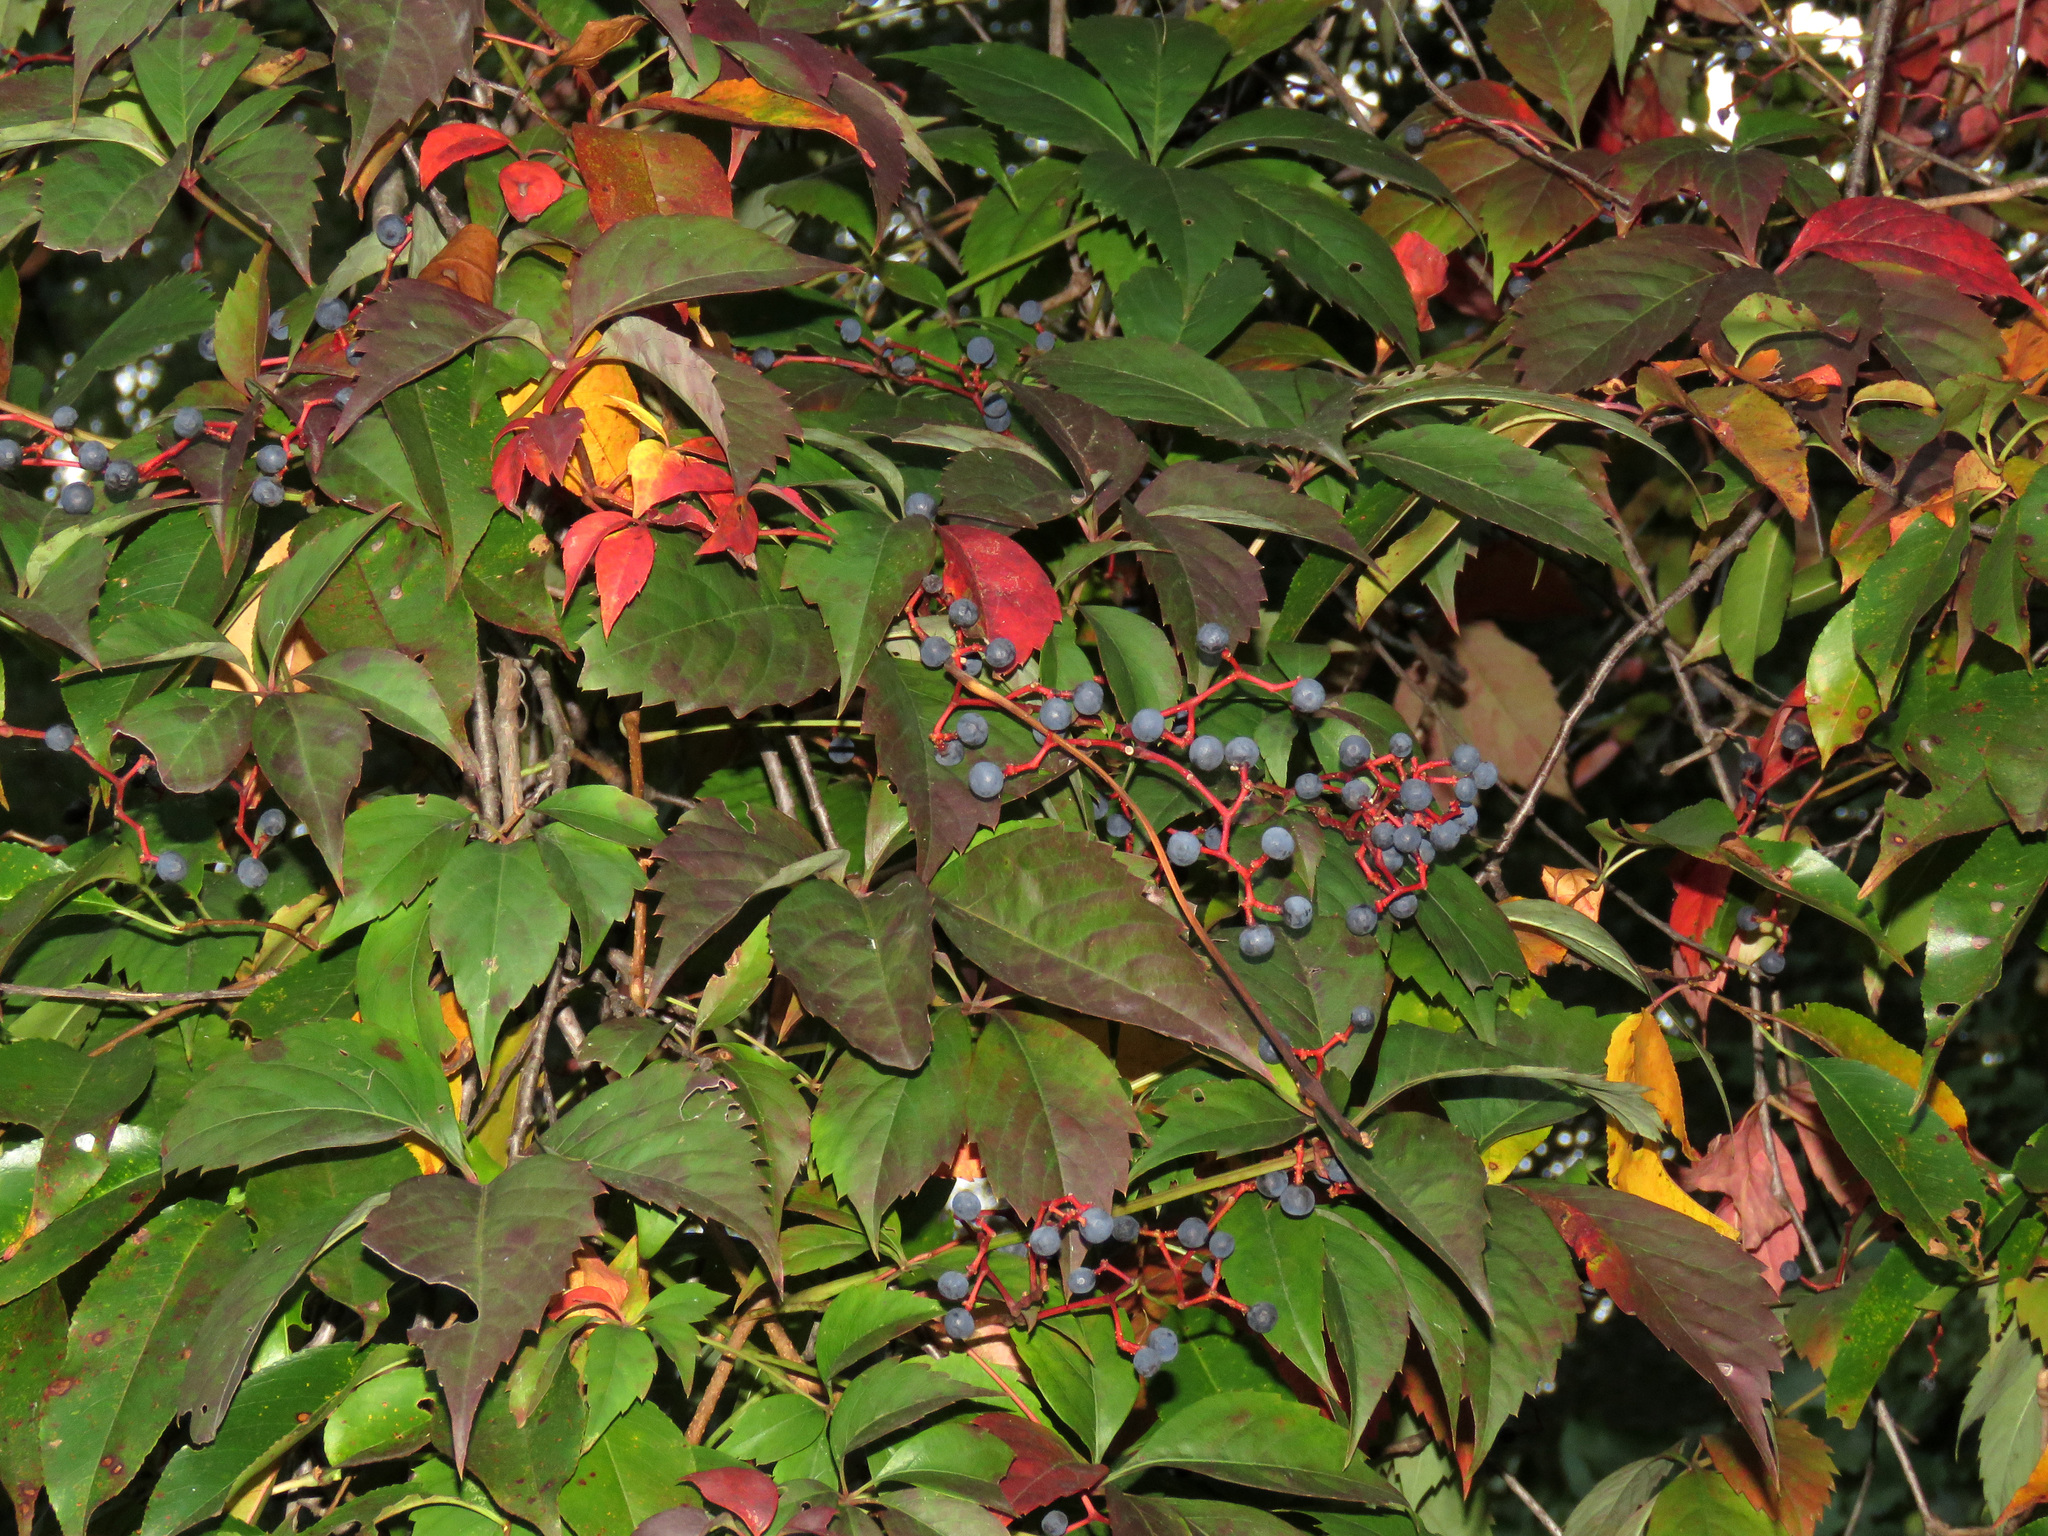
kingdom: Plantae
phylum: Tracheophyta
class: Magnoliopsida
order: Vitales
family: Vitaceae
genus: Parthenocissus
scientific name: Parthenocissus quinquefolia
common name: Virginia-creeper
